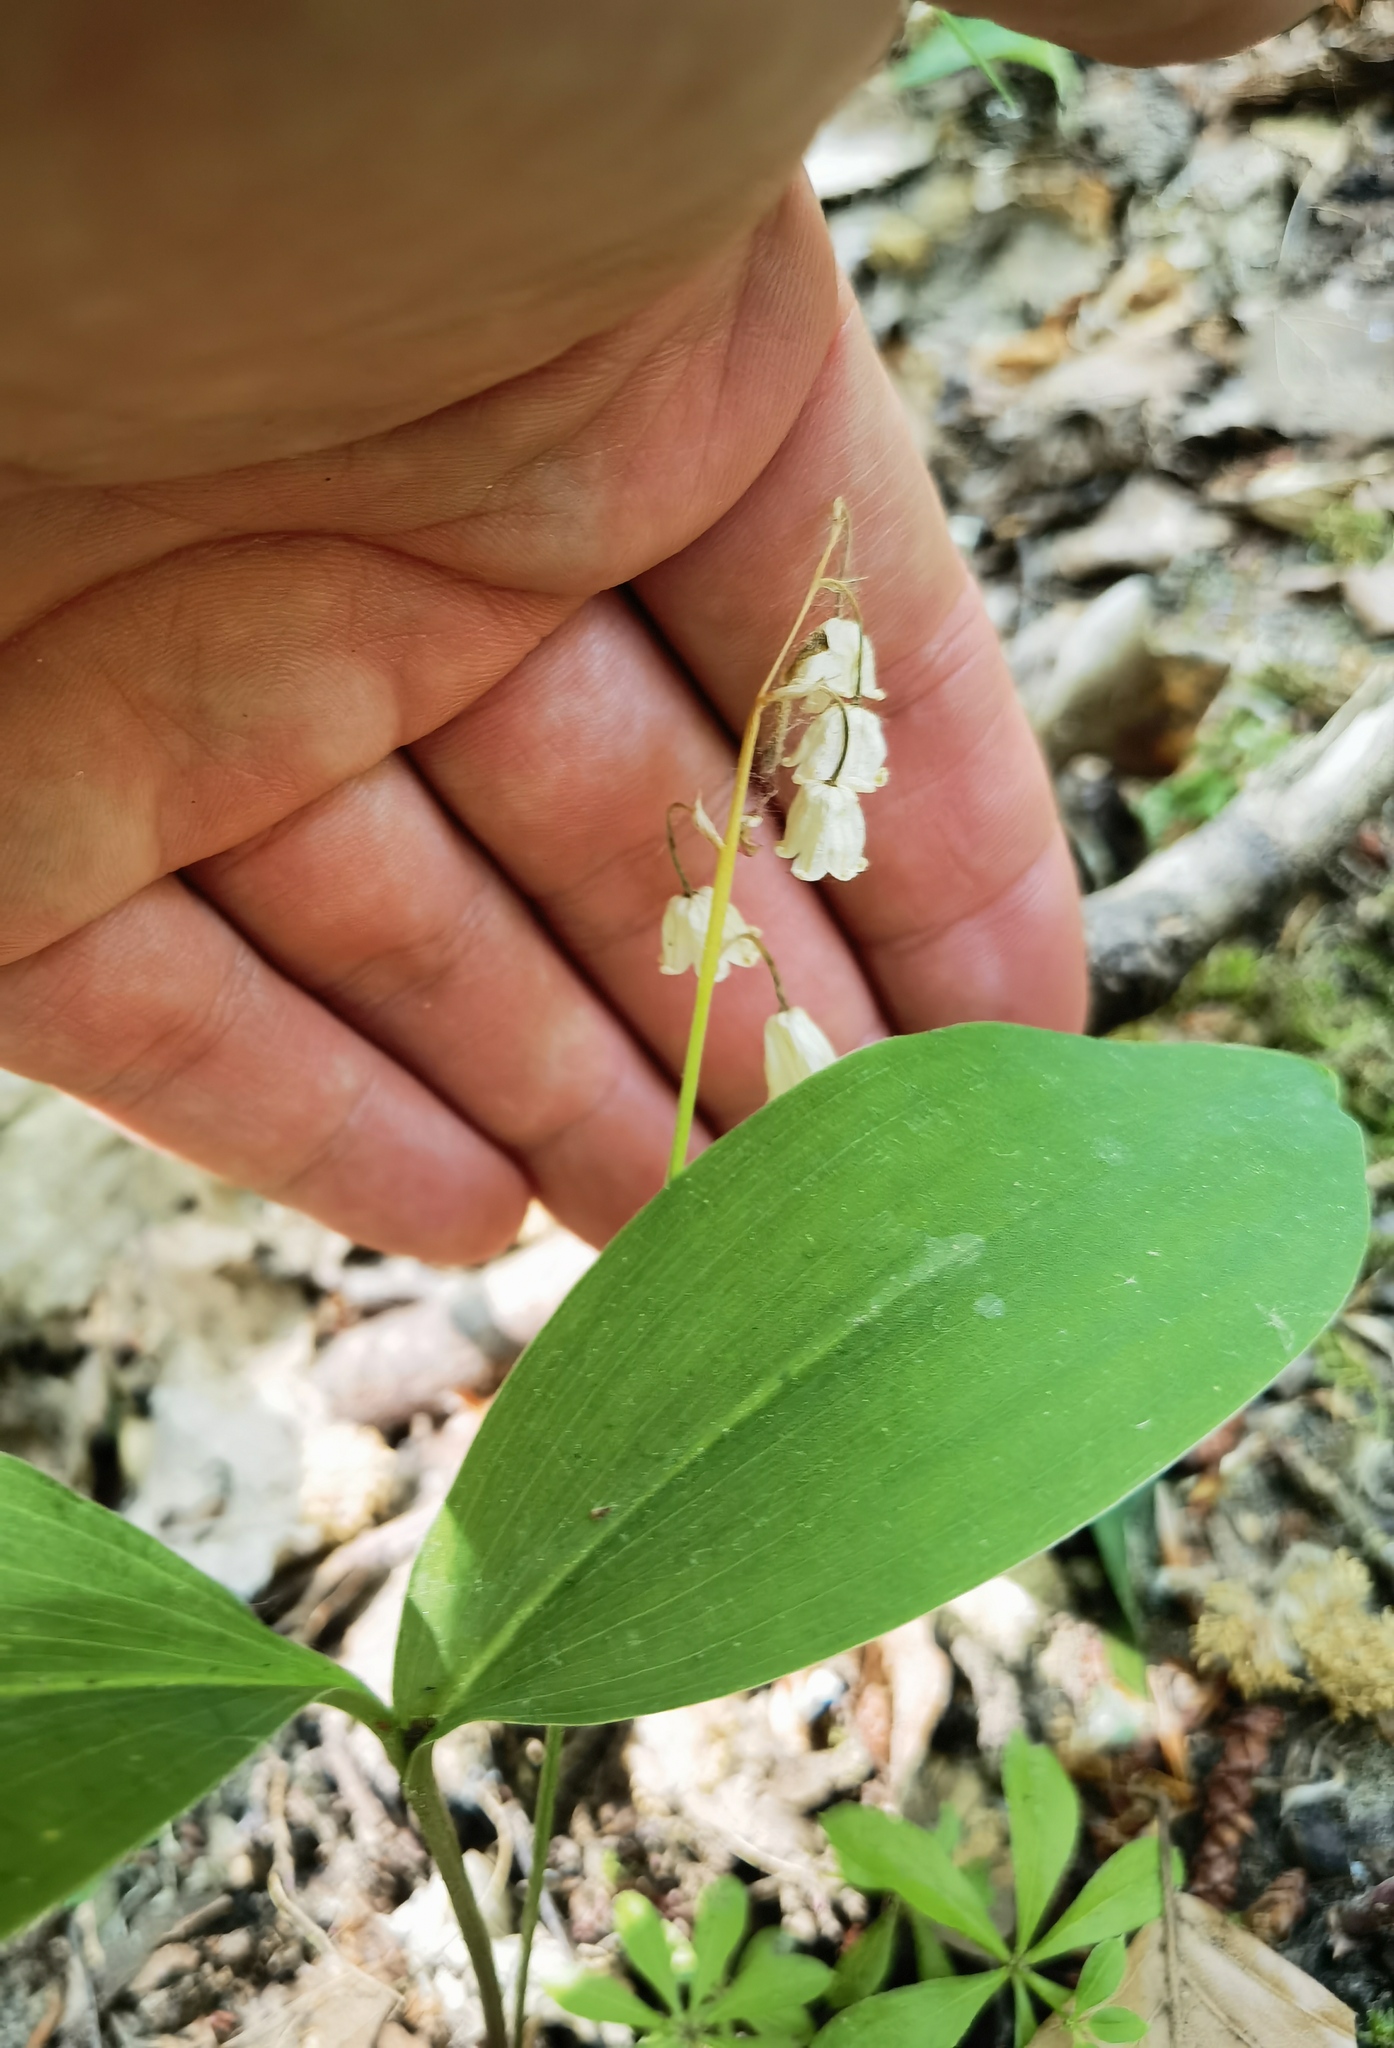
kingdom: Plantae
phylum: Tracheophyta
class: Liliopsida
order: Asparagales
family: Asparagaceae
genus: Convallaria
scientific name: Convallaria majalis
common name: Lily-of-the-valley
